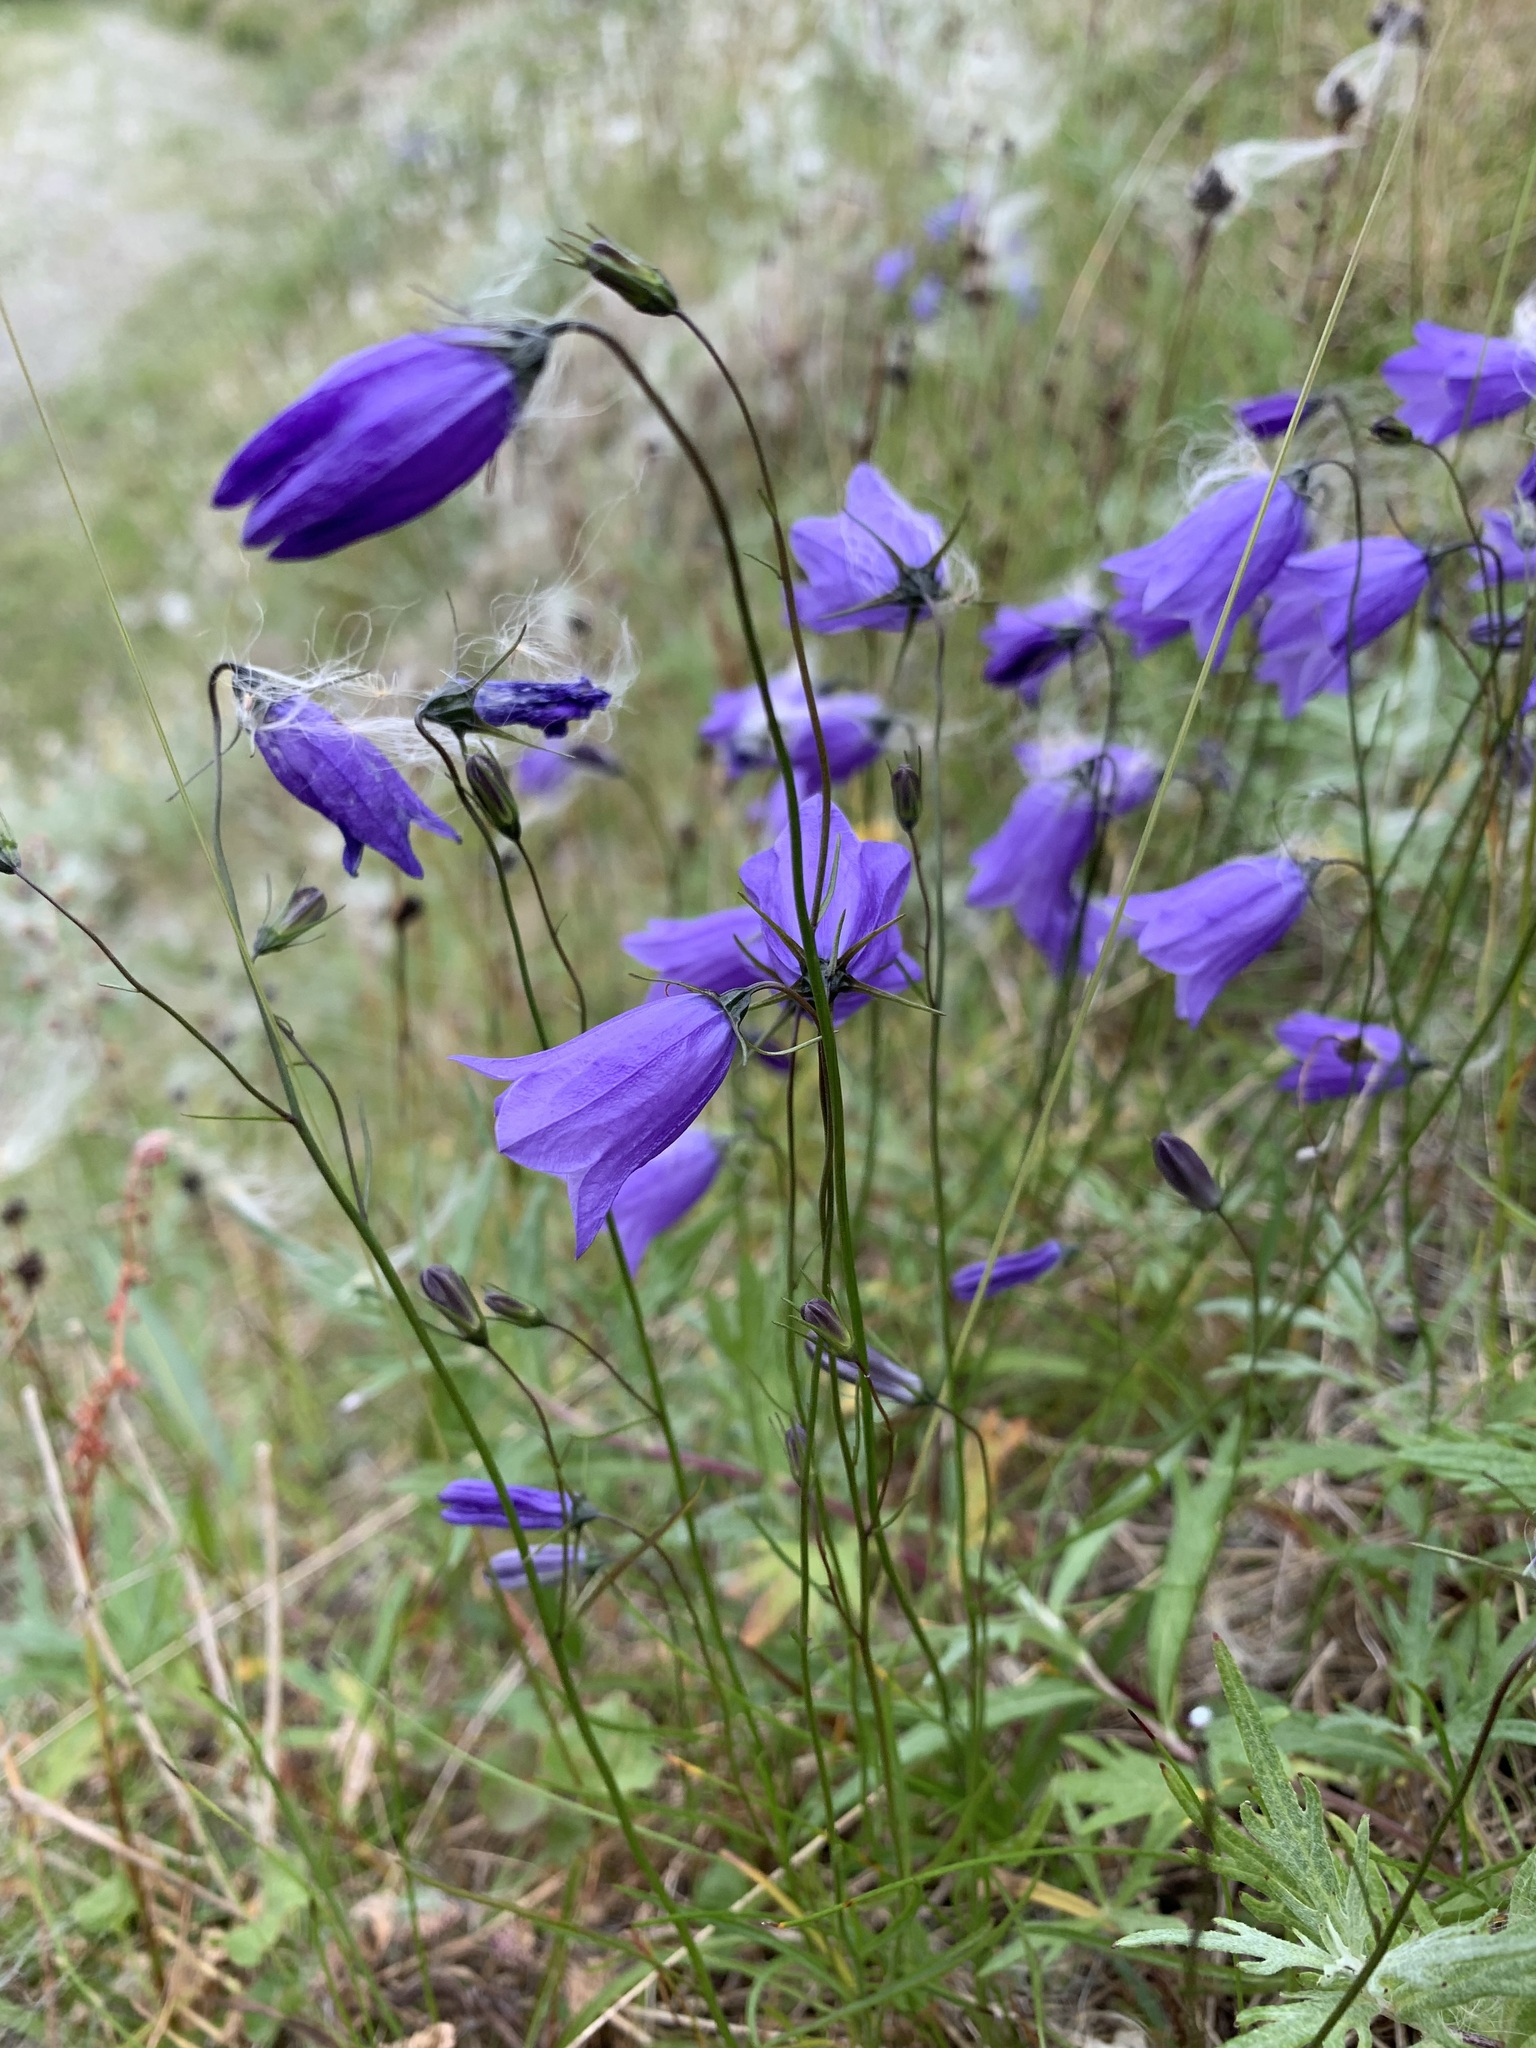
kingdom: Plantae
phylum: Tracheophyta
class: Magnoliopsida
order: Asterales
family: Campanulaceae
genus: Campanula
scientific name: Campanula rotundifolia
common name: Harebell
